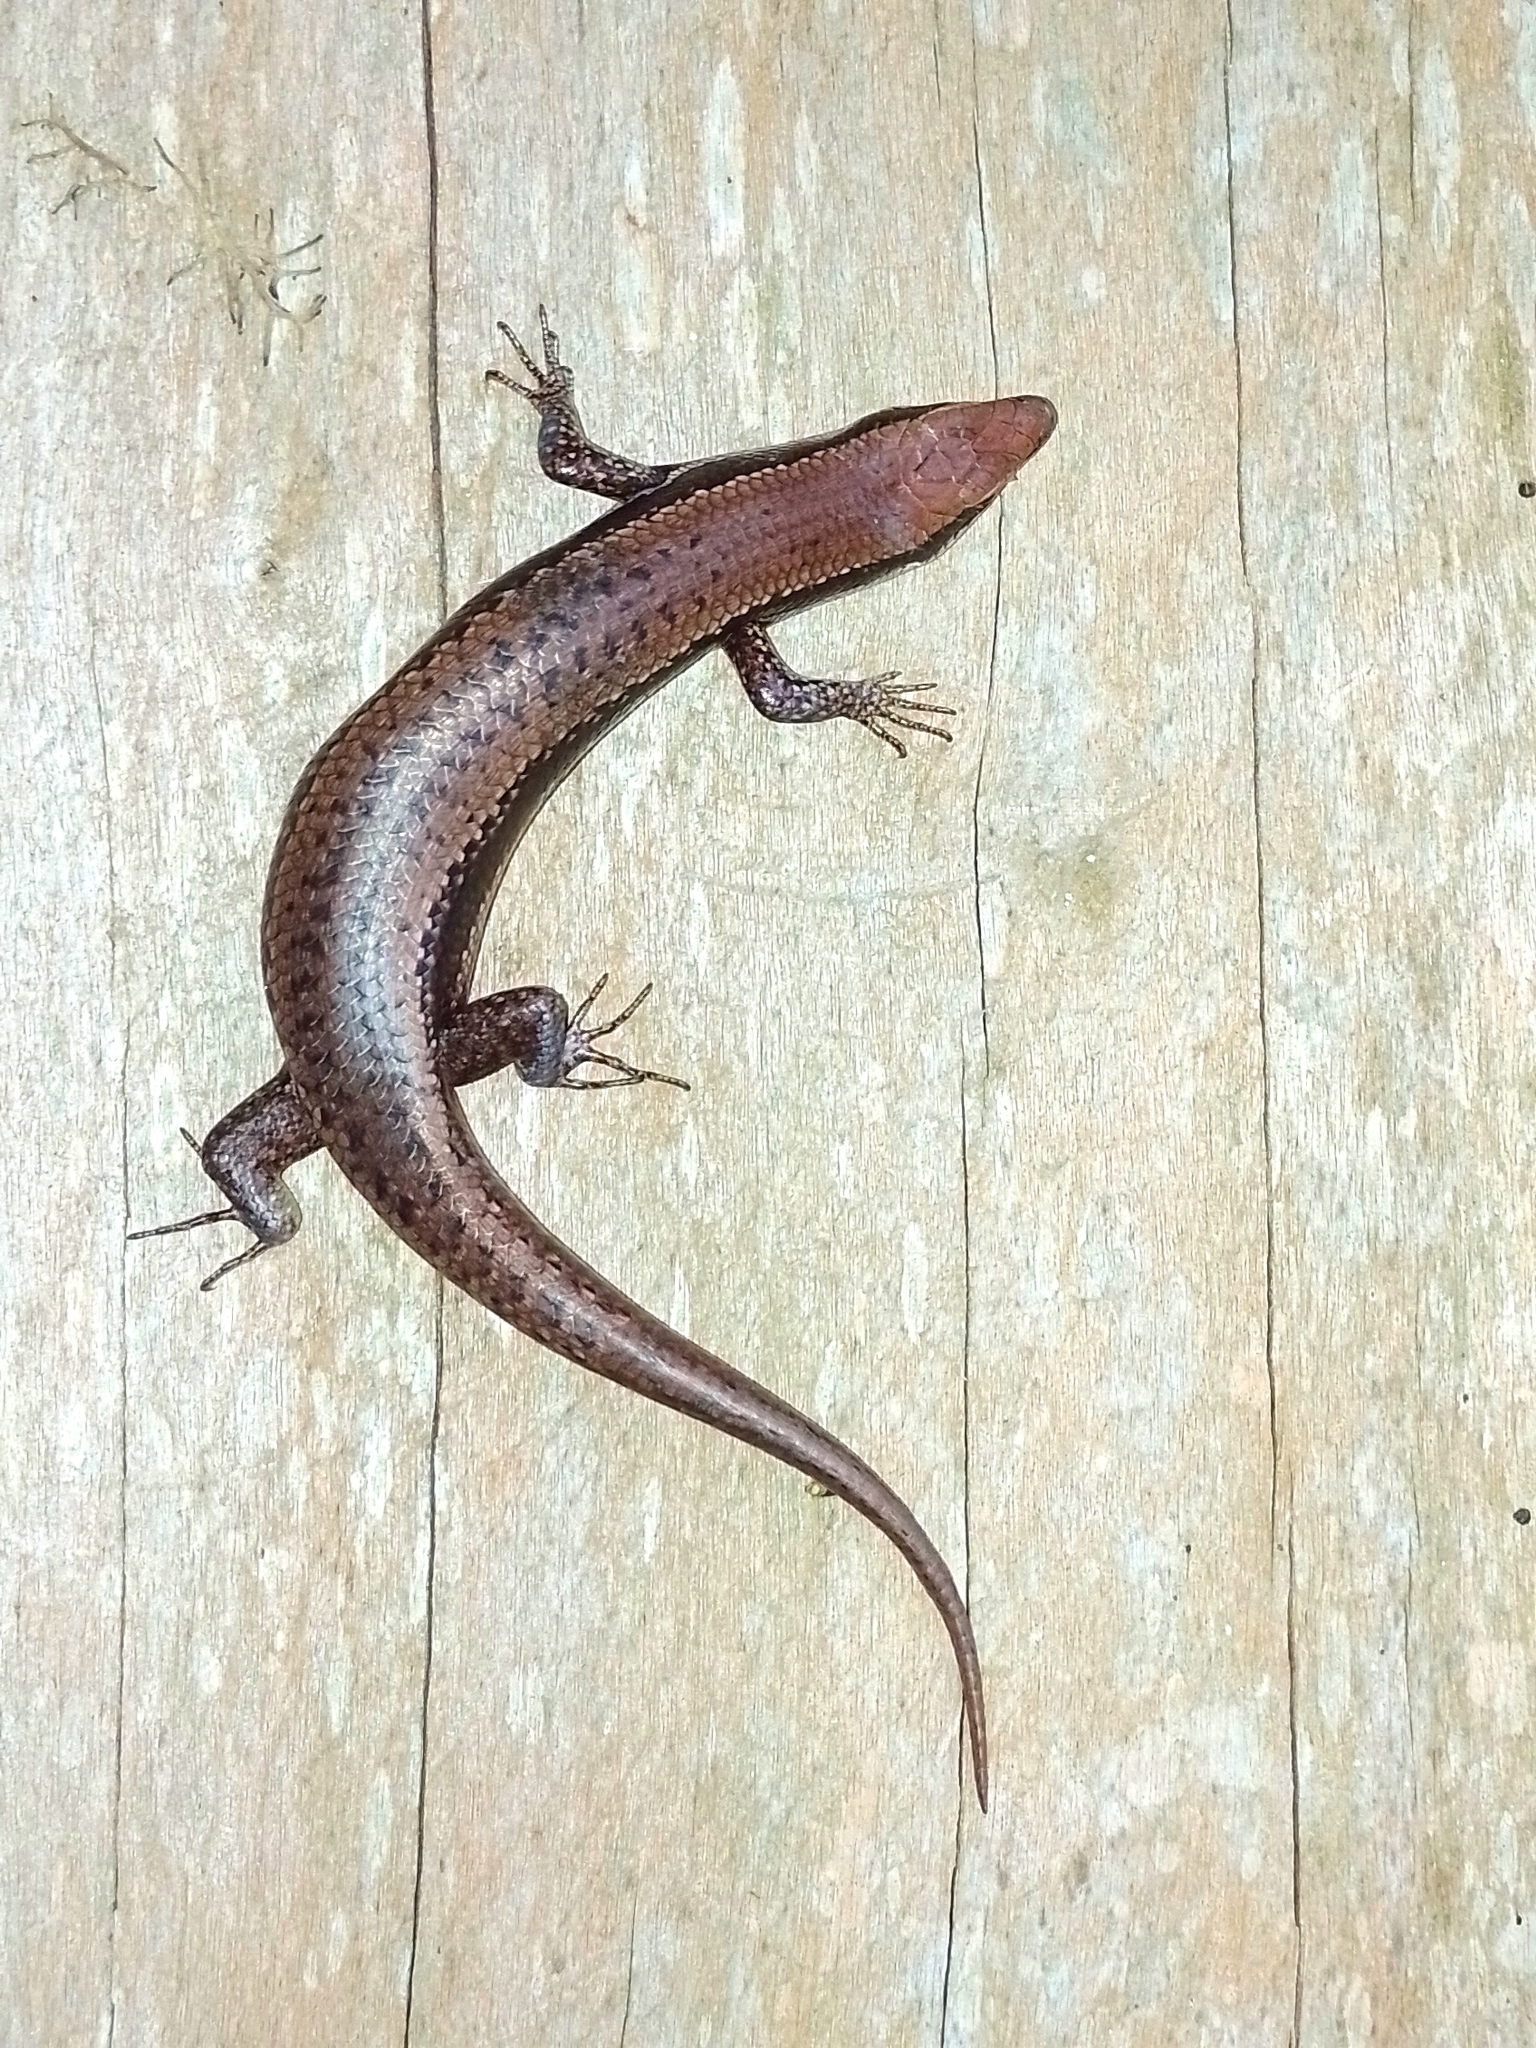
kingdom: Animalia
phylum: Chordata
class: Squamata
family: Scincidae
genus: Notomabuya
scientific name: Notomabuya frenata
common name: Cope's mabuya
